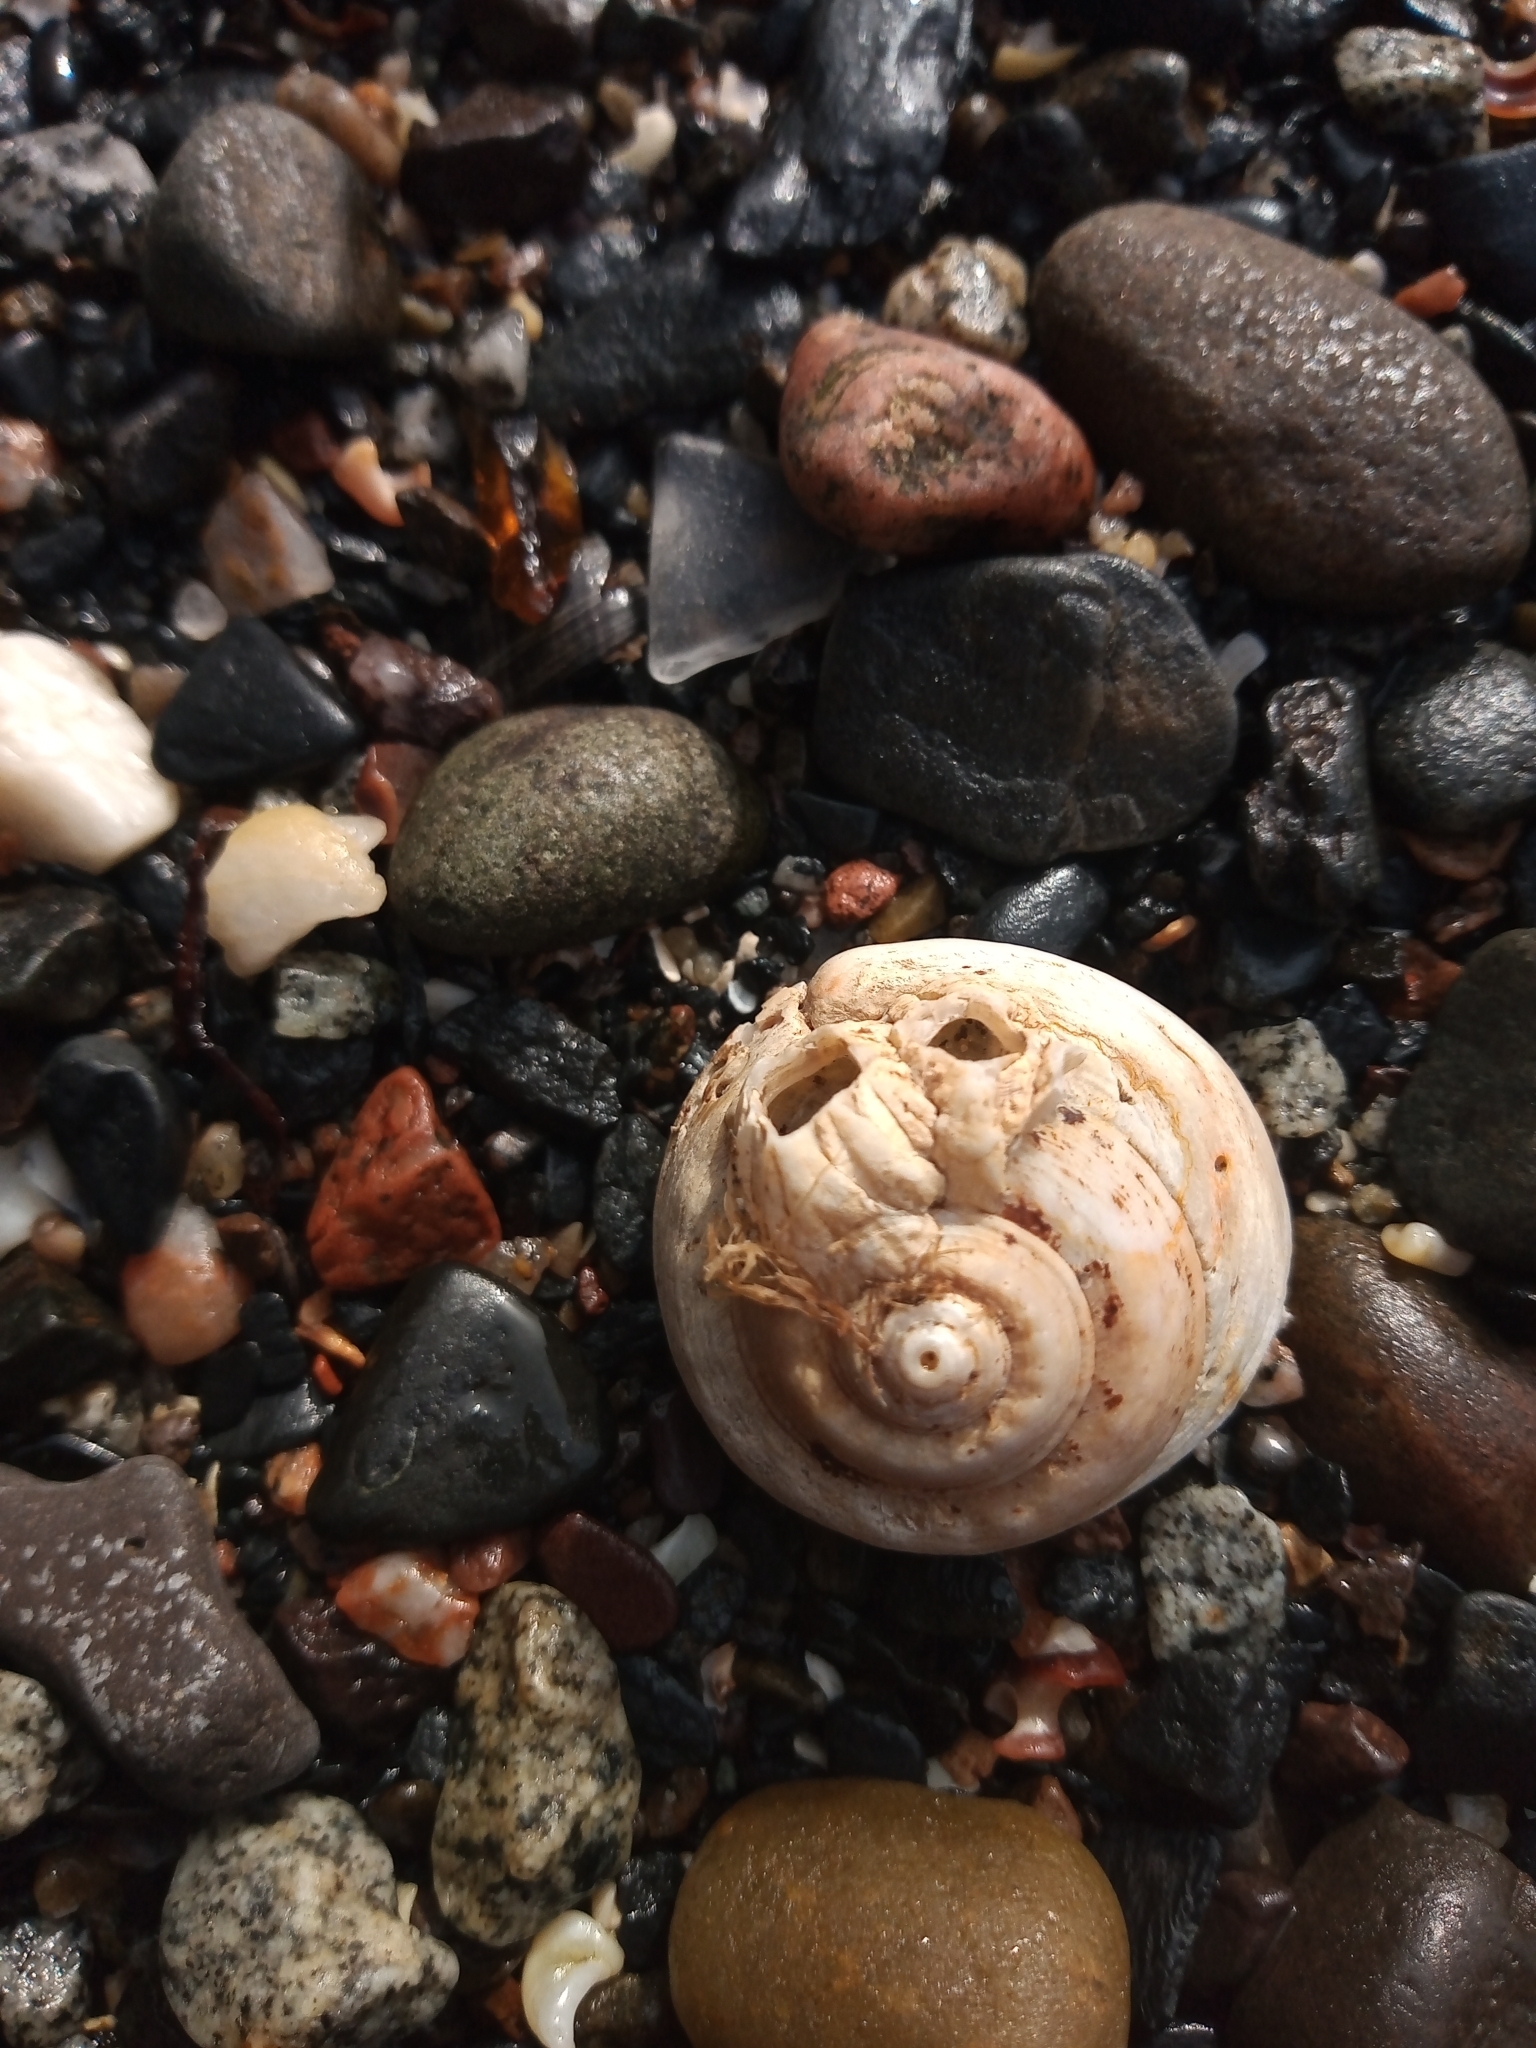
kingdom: Animalia
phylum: Mollusca
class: Gastropoda
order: Trochida
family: Trochidae
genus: Gibbula
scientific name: Gibbula magus
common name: Turban top shell
